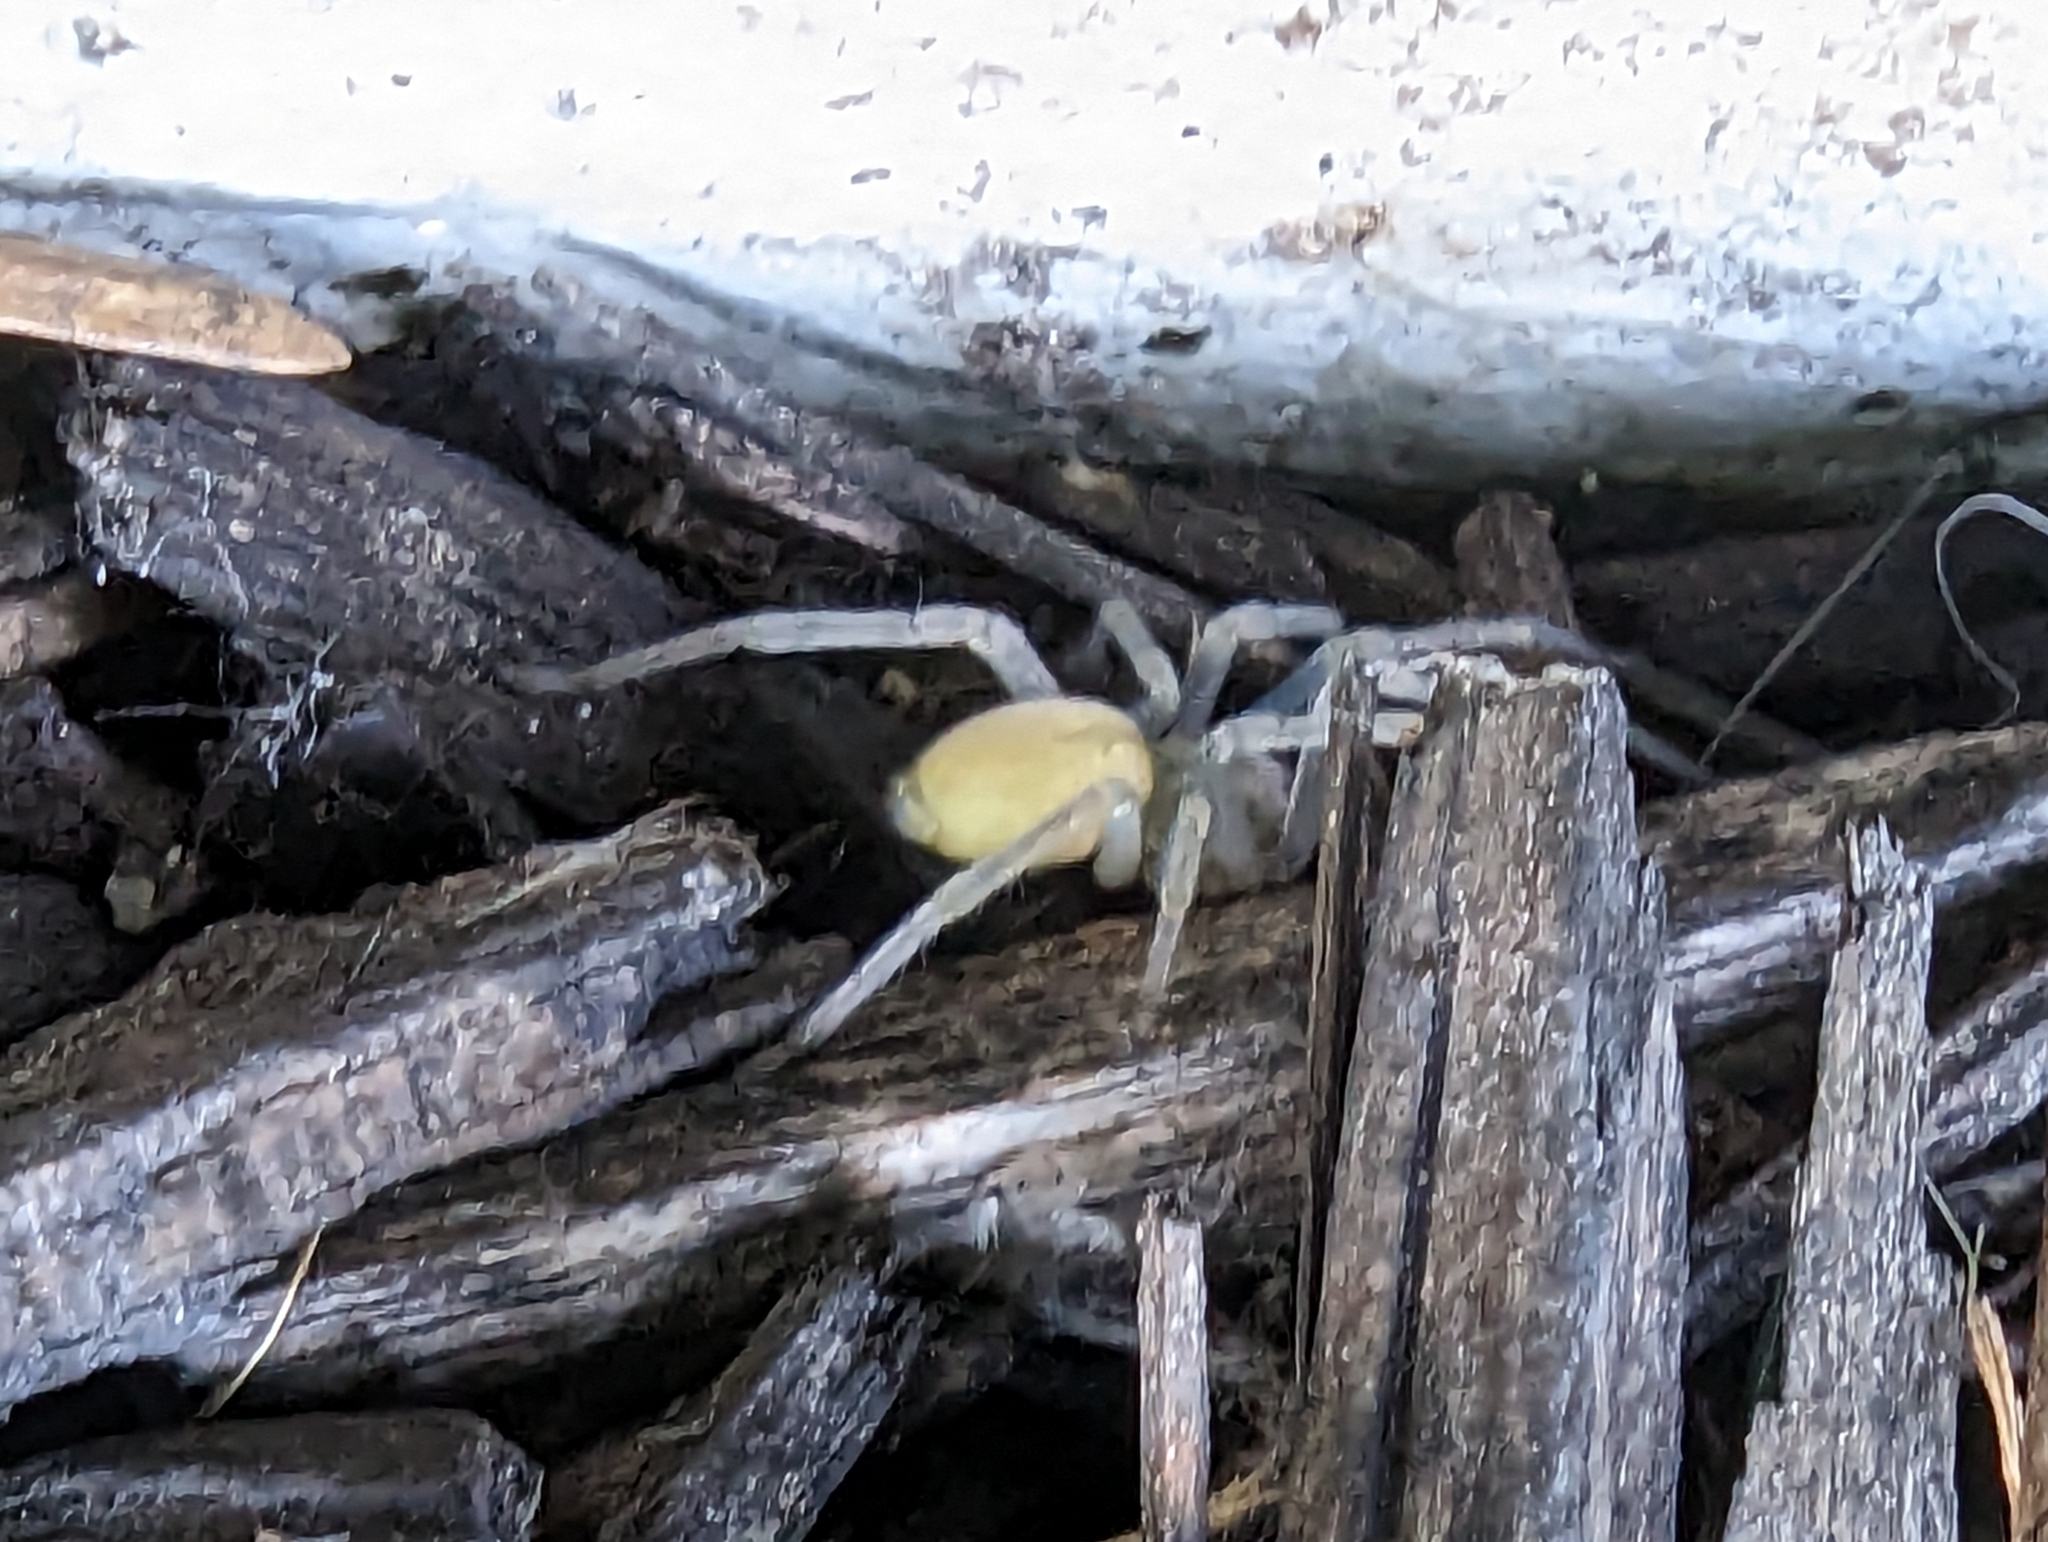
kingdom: Animalia
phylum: Arthropoda
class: Arachnida
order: Araneae
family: Cheiracanthiidae
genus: Cheiracanthium
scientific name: Cheiracanthium mildei
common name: Northern yellow sac spider
